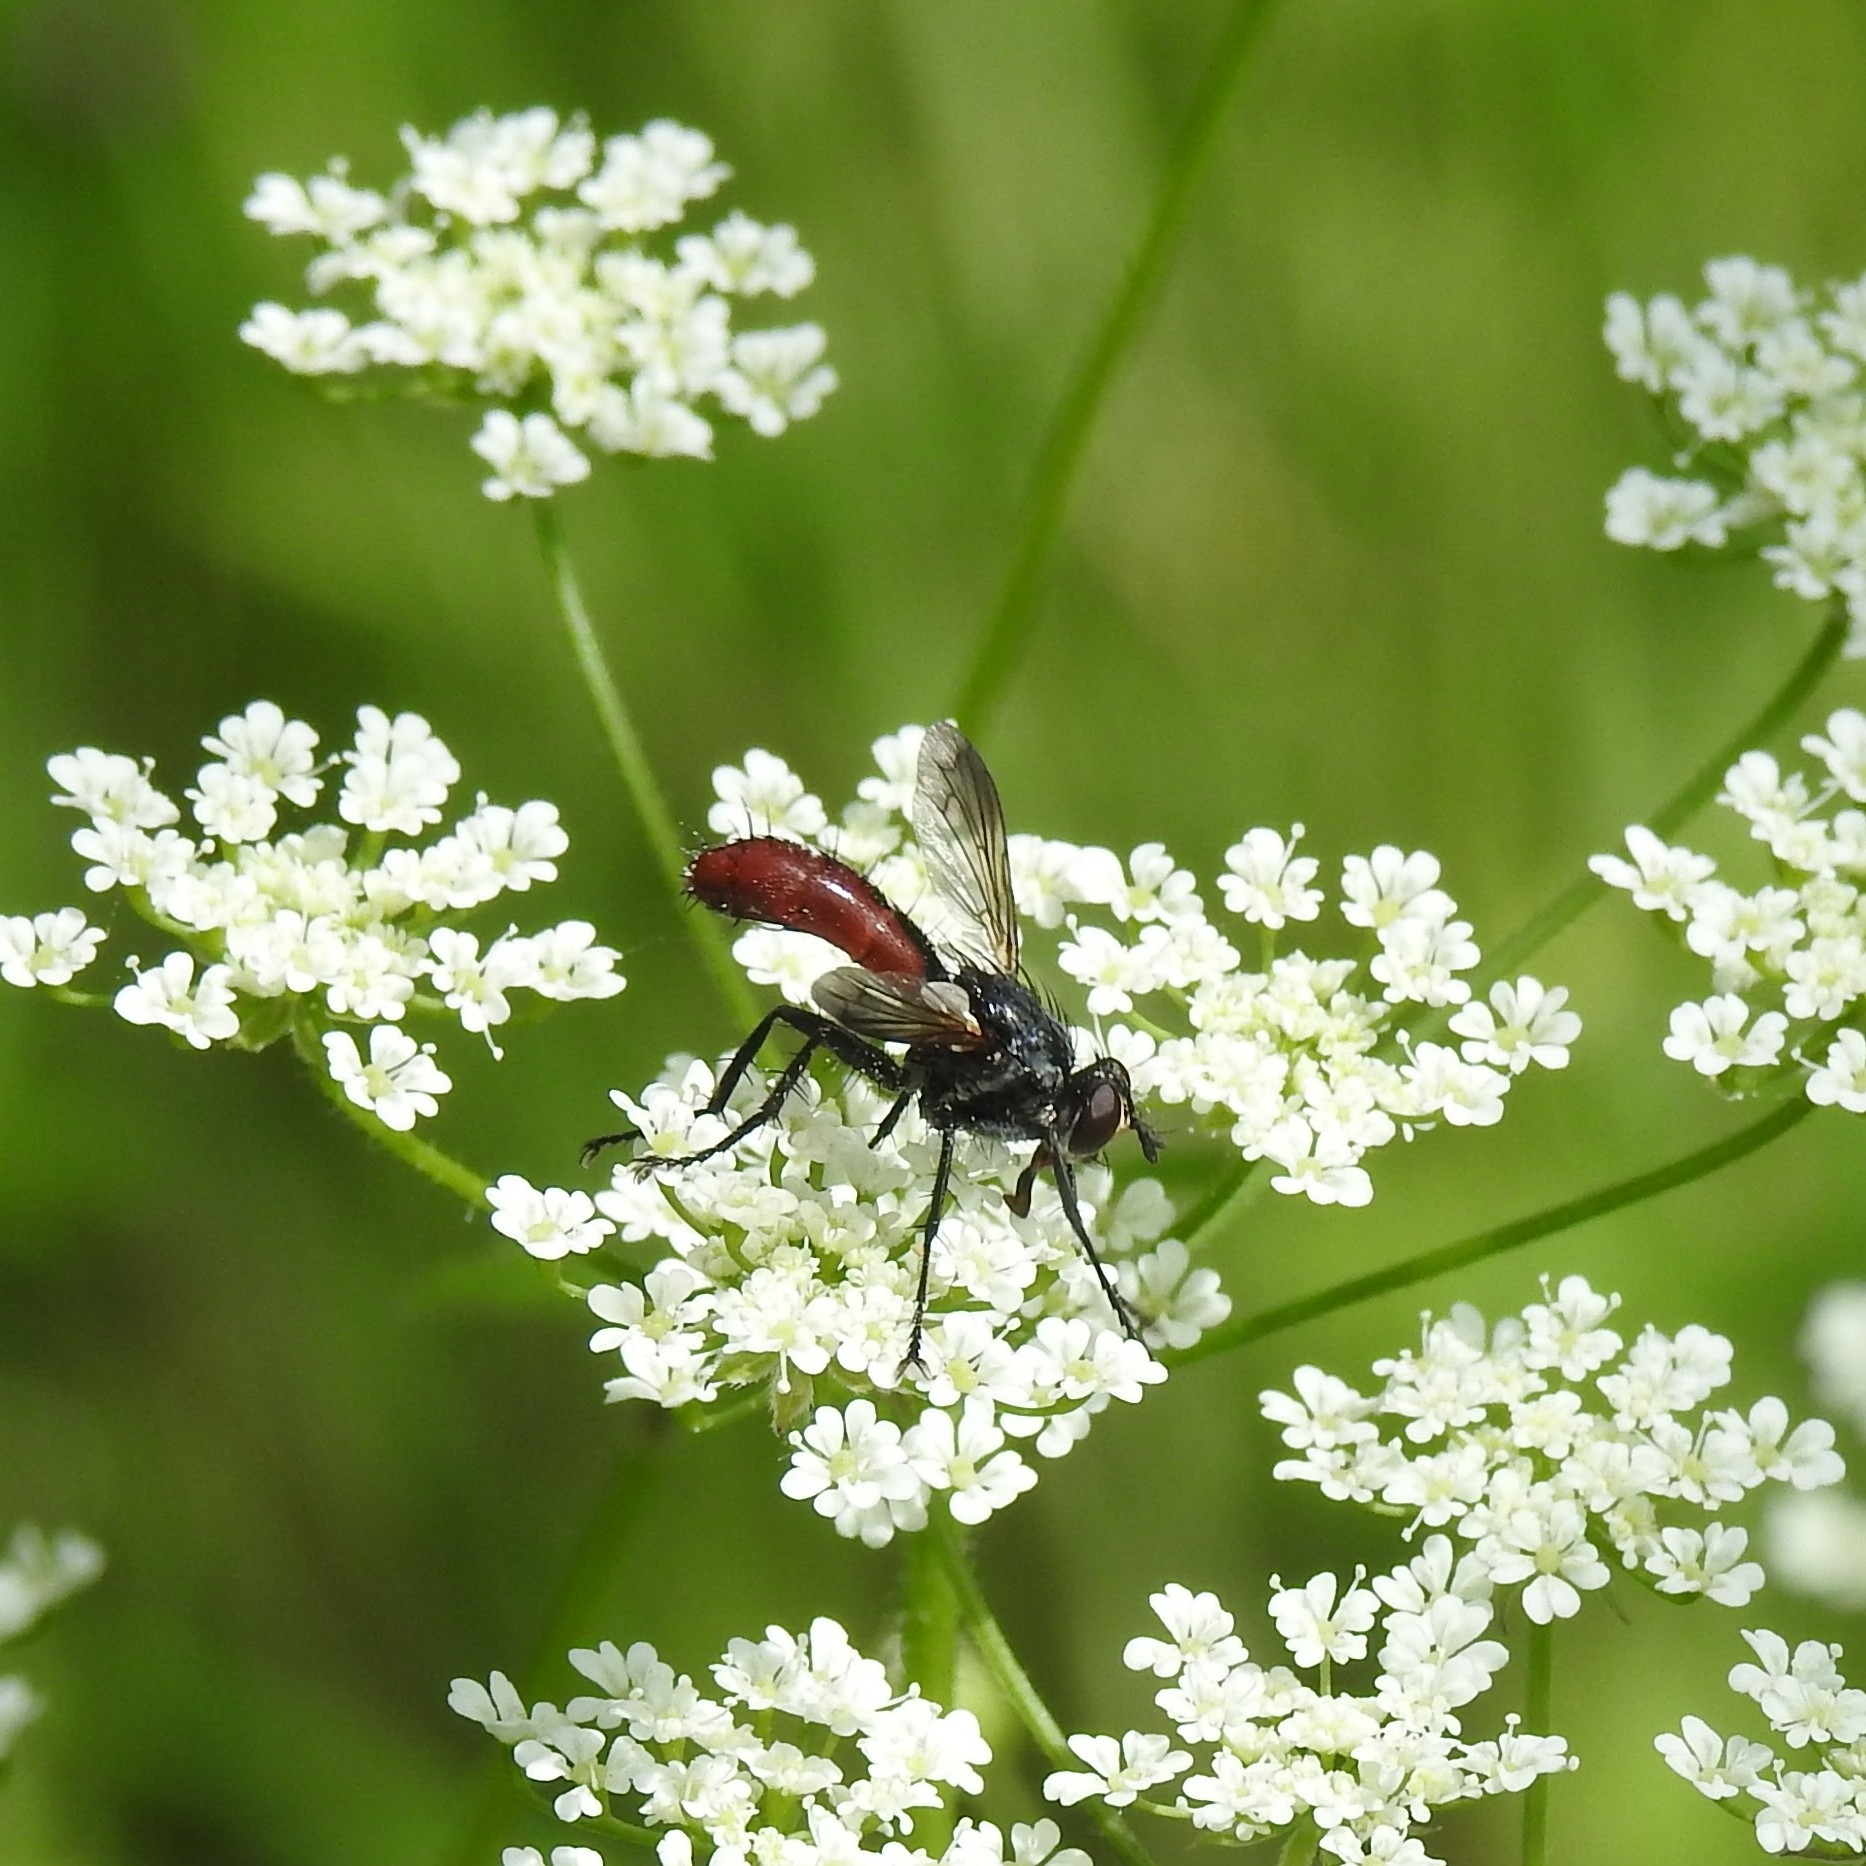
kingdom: Animalia
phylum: Arthropoda
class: Insecta
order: Diptera
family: Tachinidae
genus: Cylindromyia
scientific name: Cylindromyia bicolor
